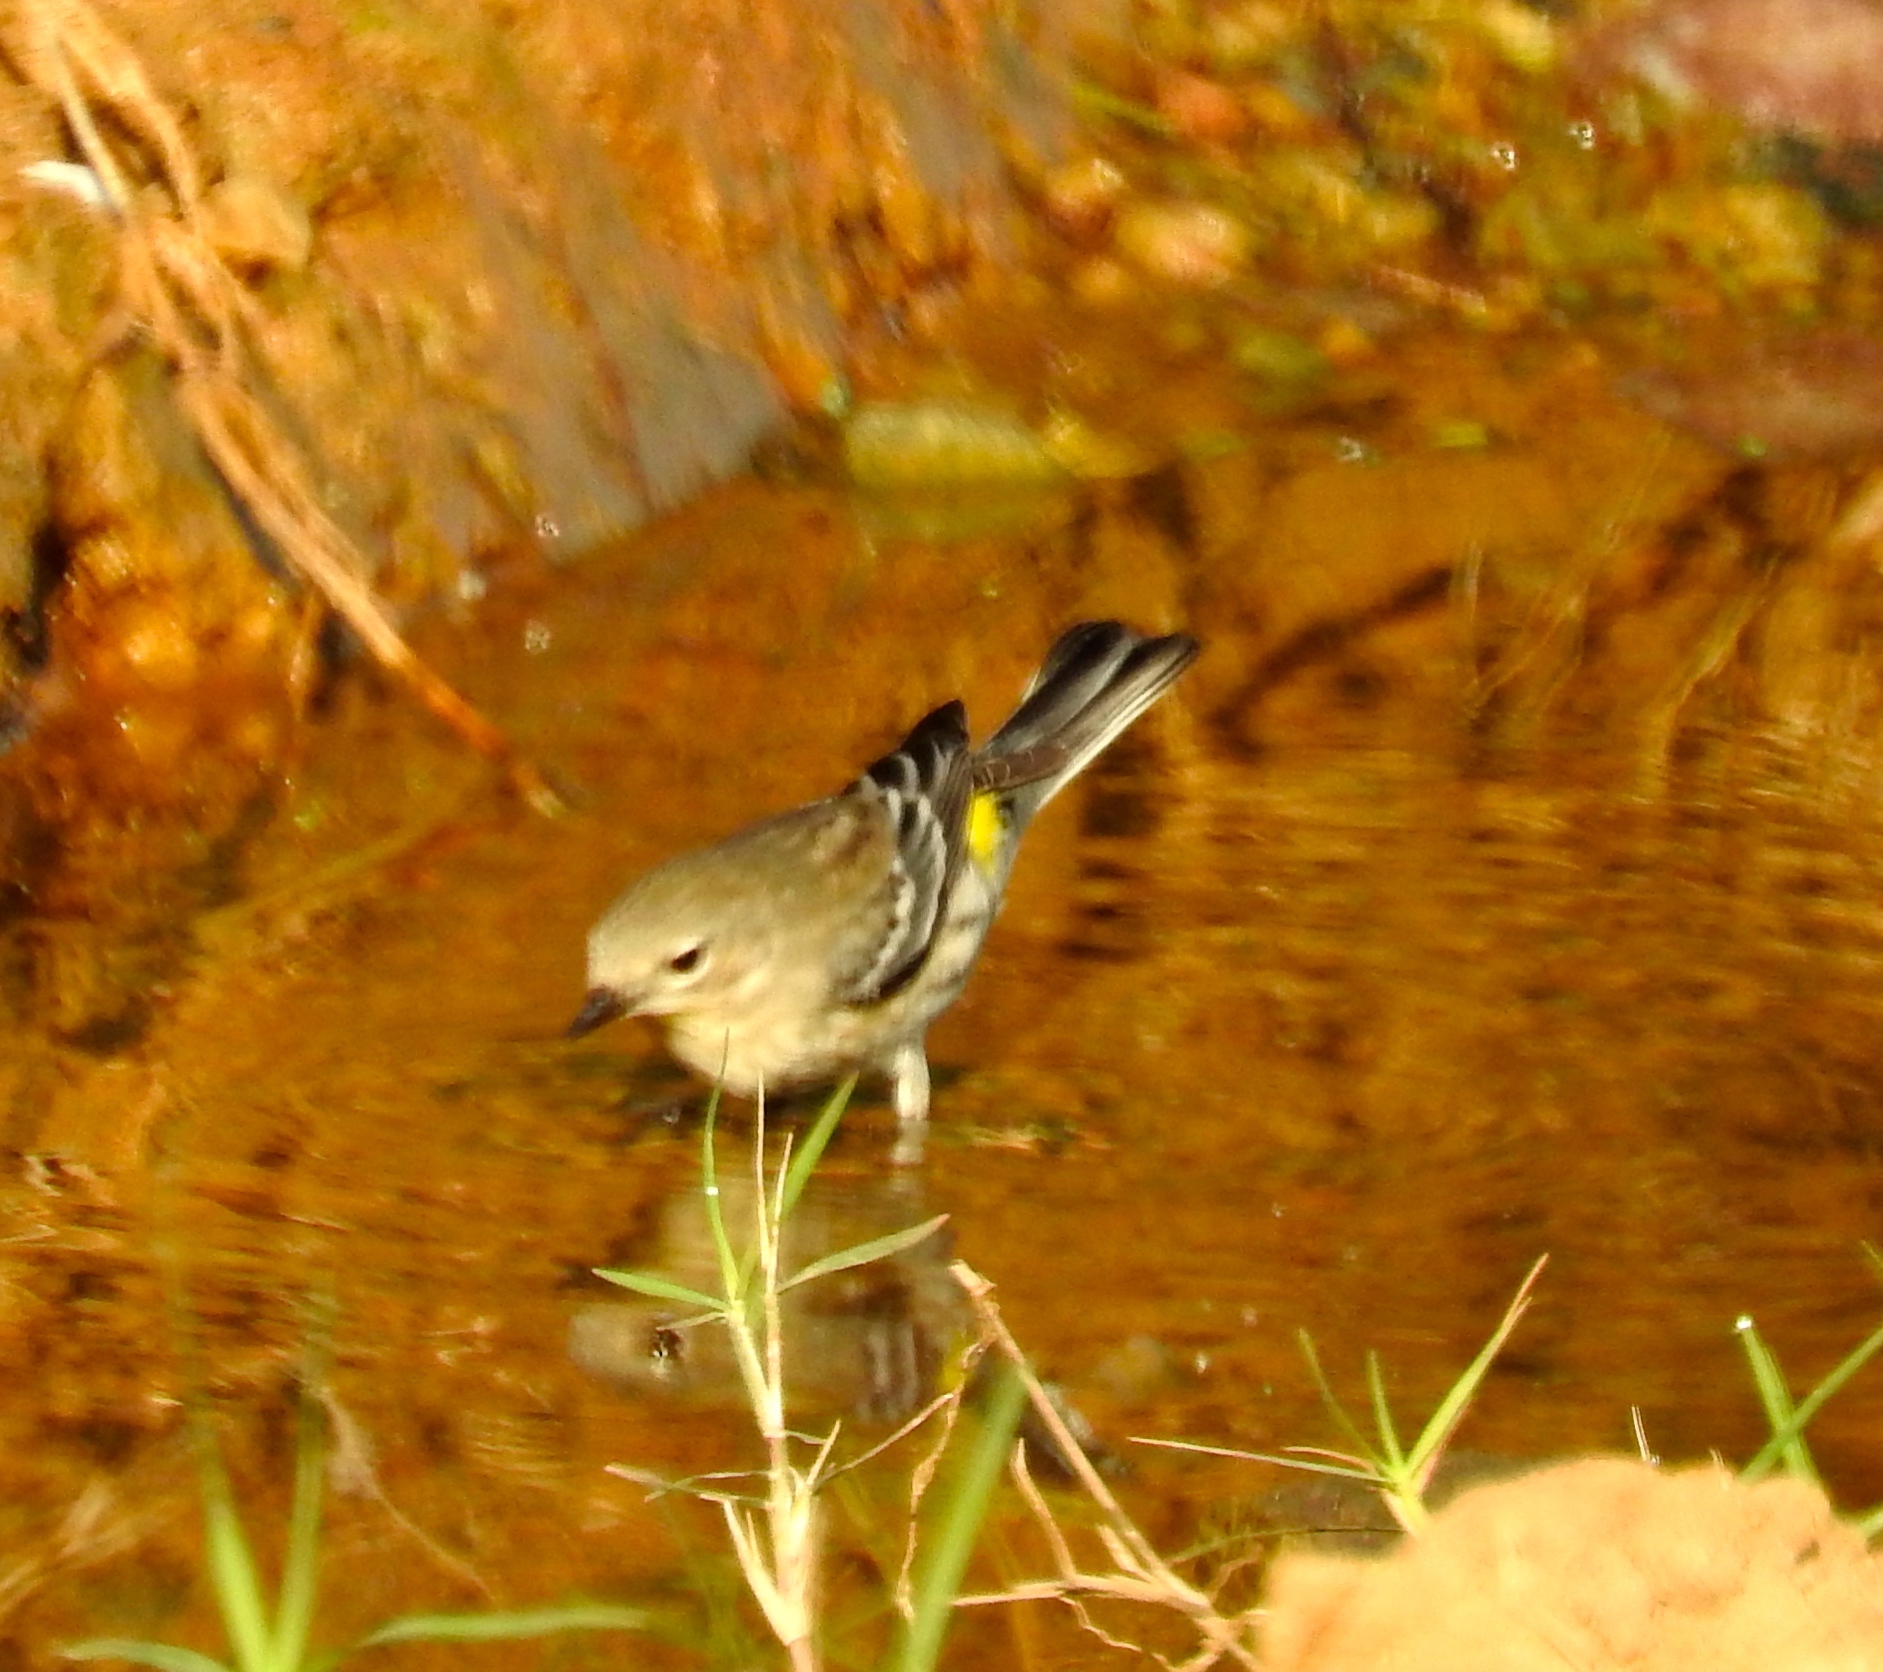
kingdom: Animalia
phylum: Chordata
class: Aves
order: Passeriformes
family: Parulidae
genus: Setophaga
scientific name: Setophaga coronata
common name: Myrtle warbler
